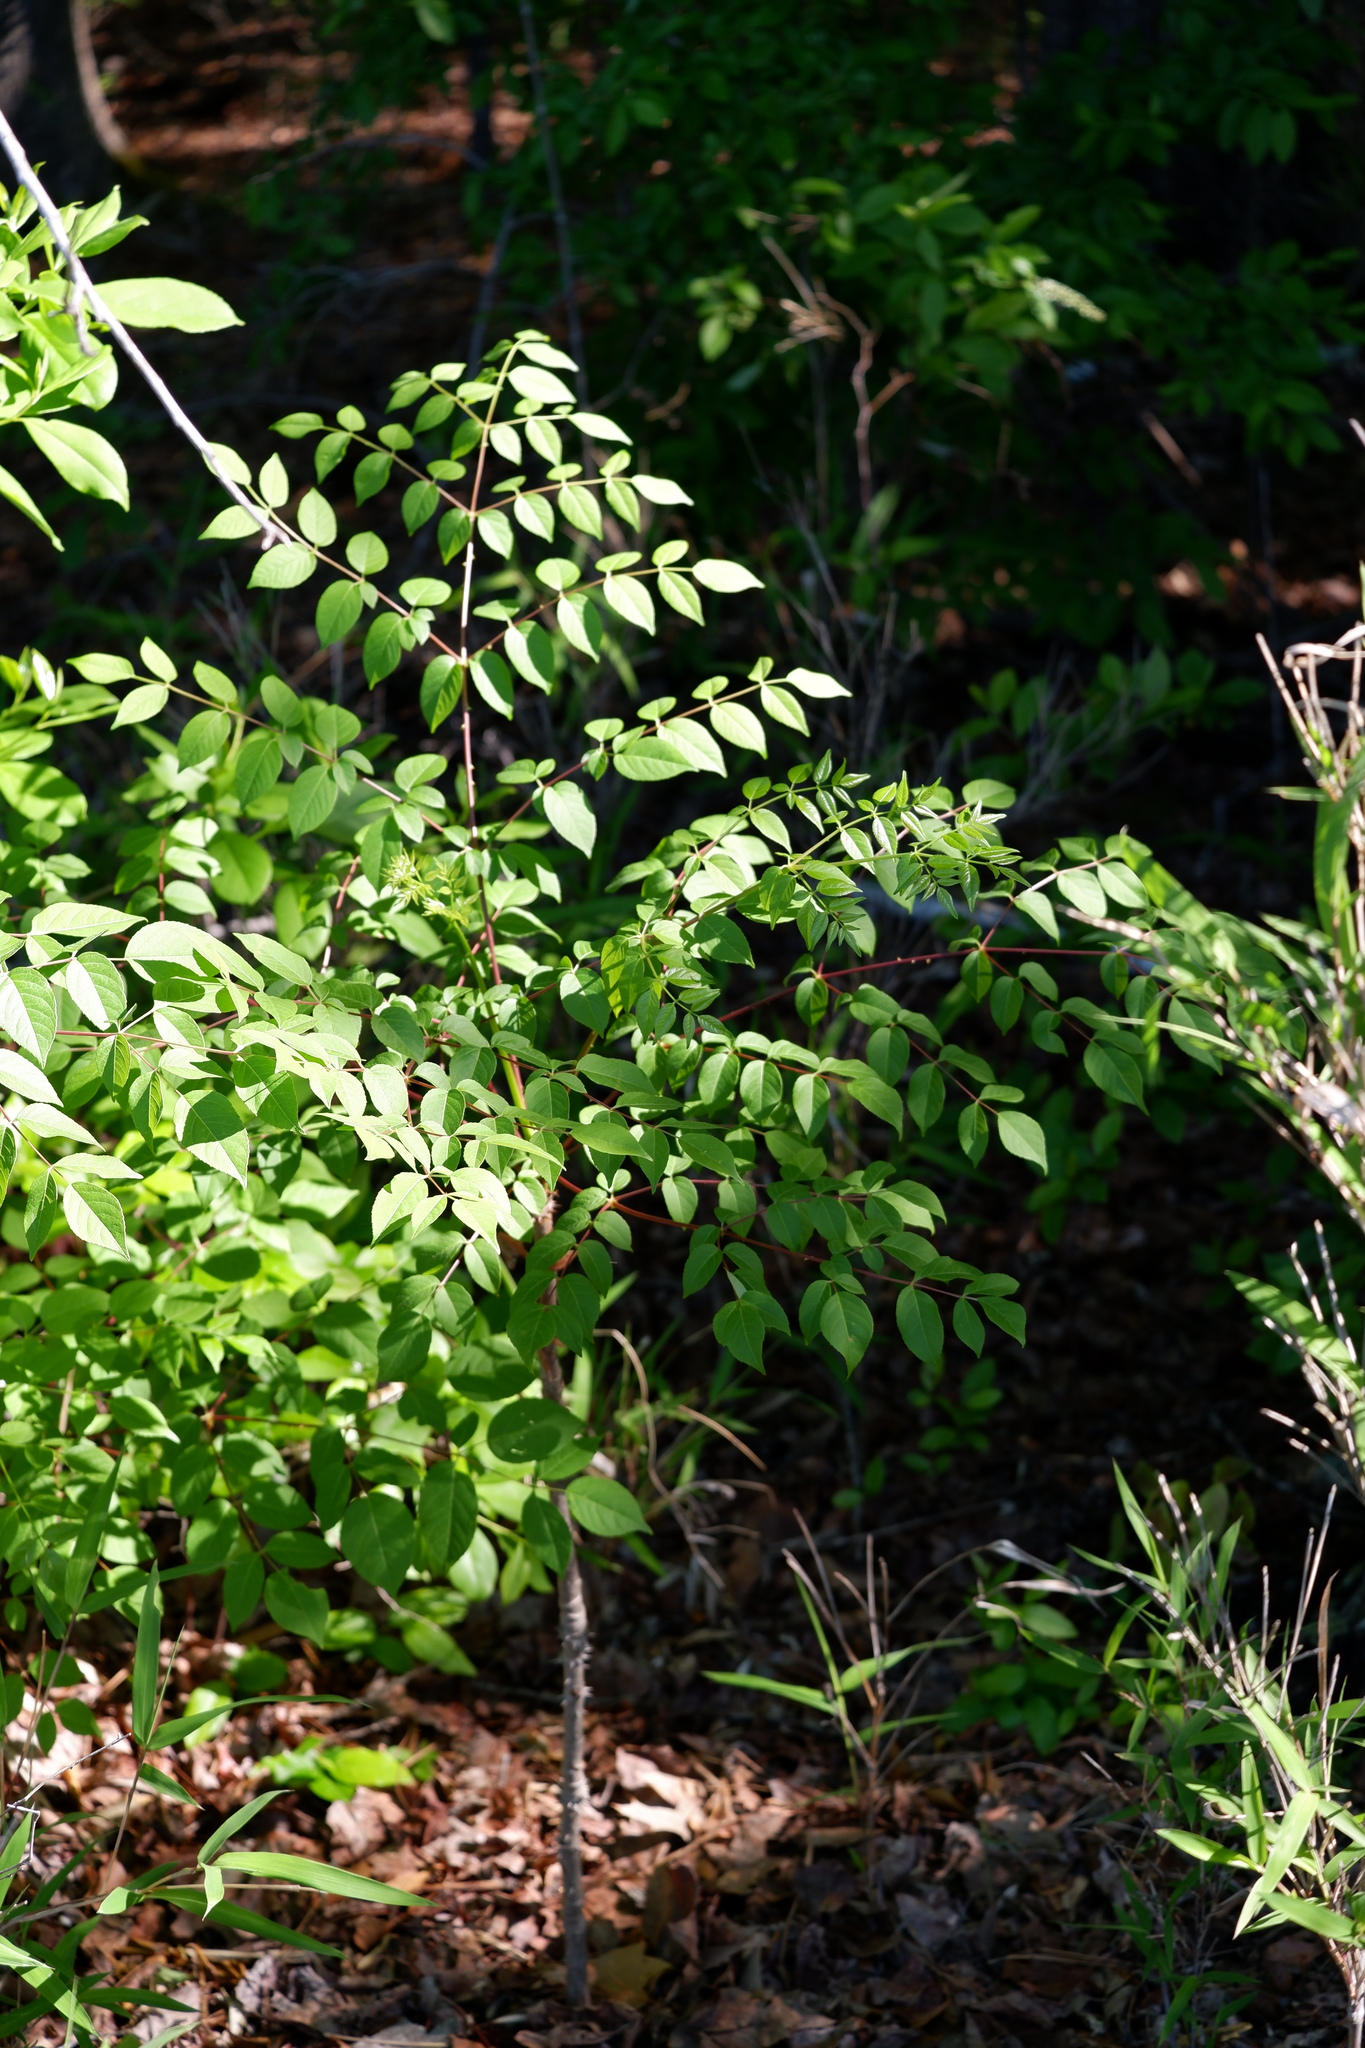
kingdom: Plantae
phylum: Tracheophyta
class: Magnoliopsida
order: Apiales
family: Araliaceae
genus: Aralia
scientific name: Aralia spinosa
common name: Hercules'-club
